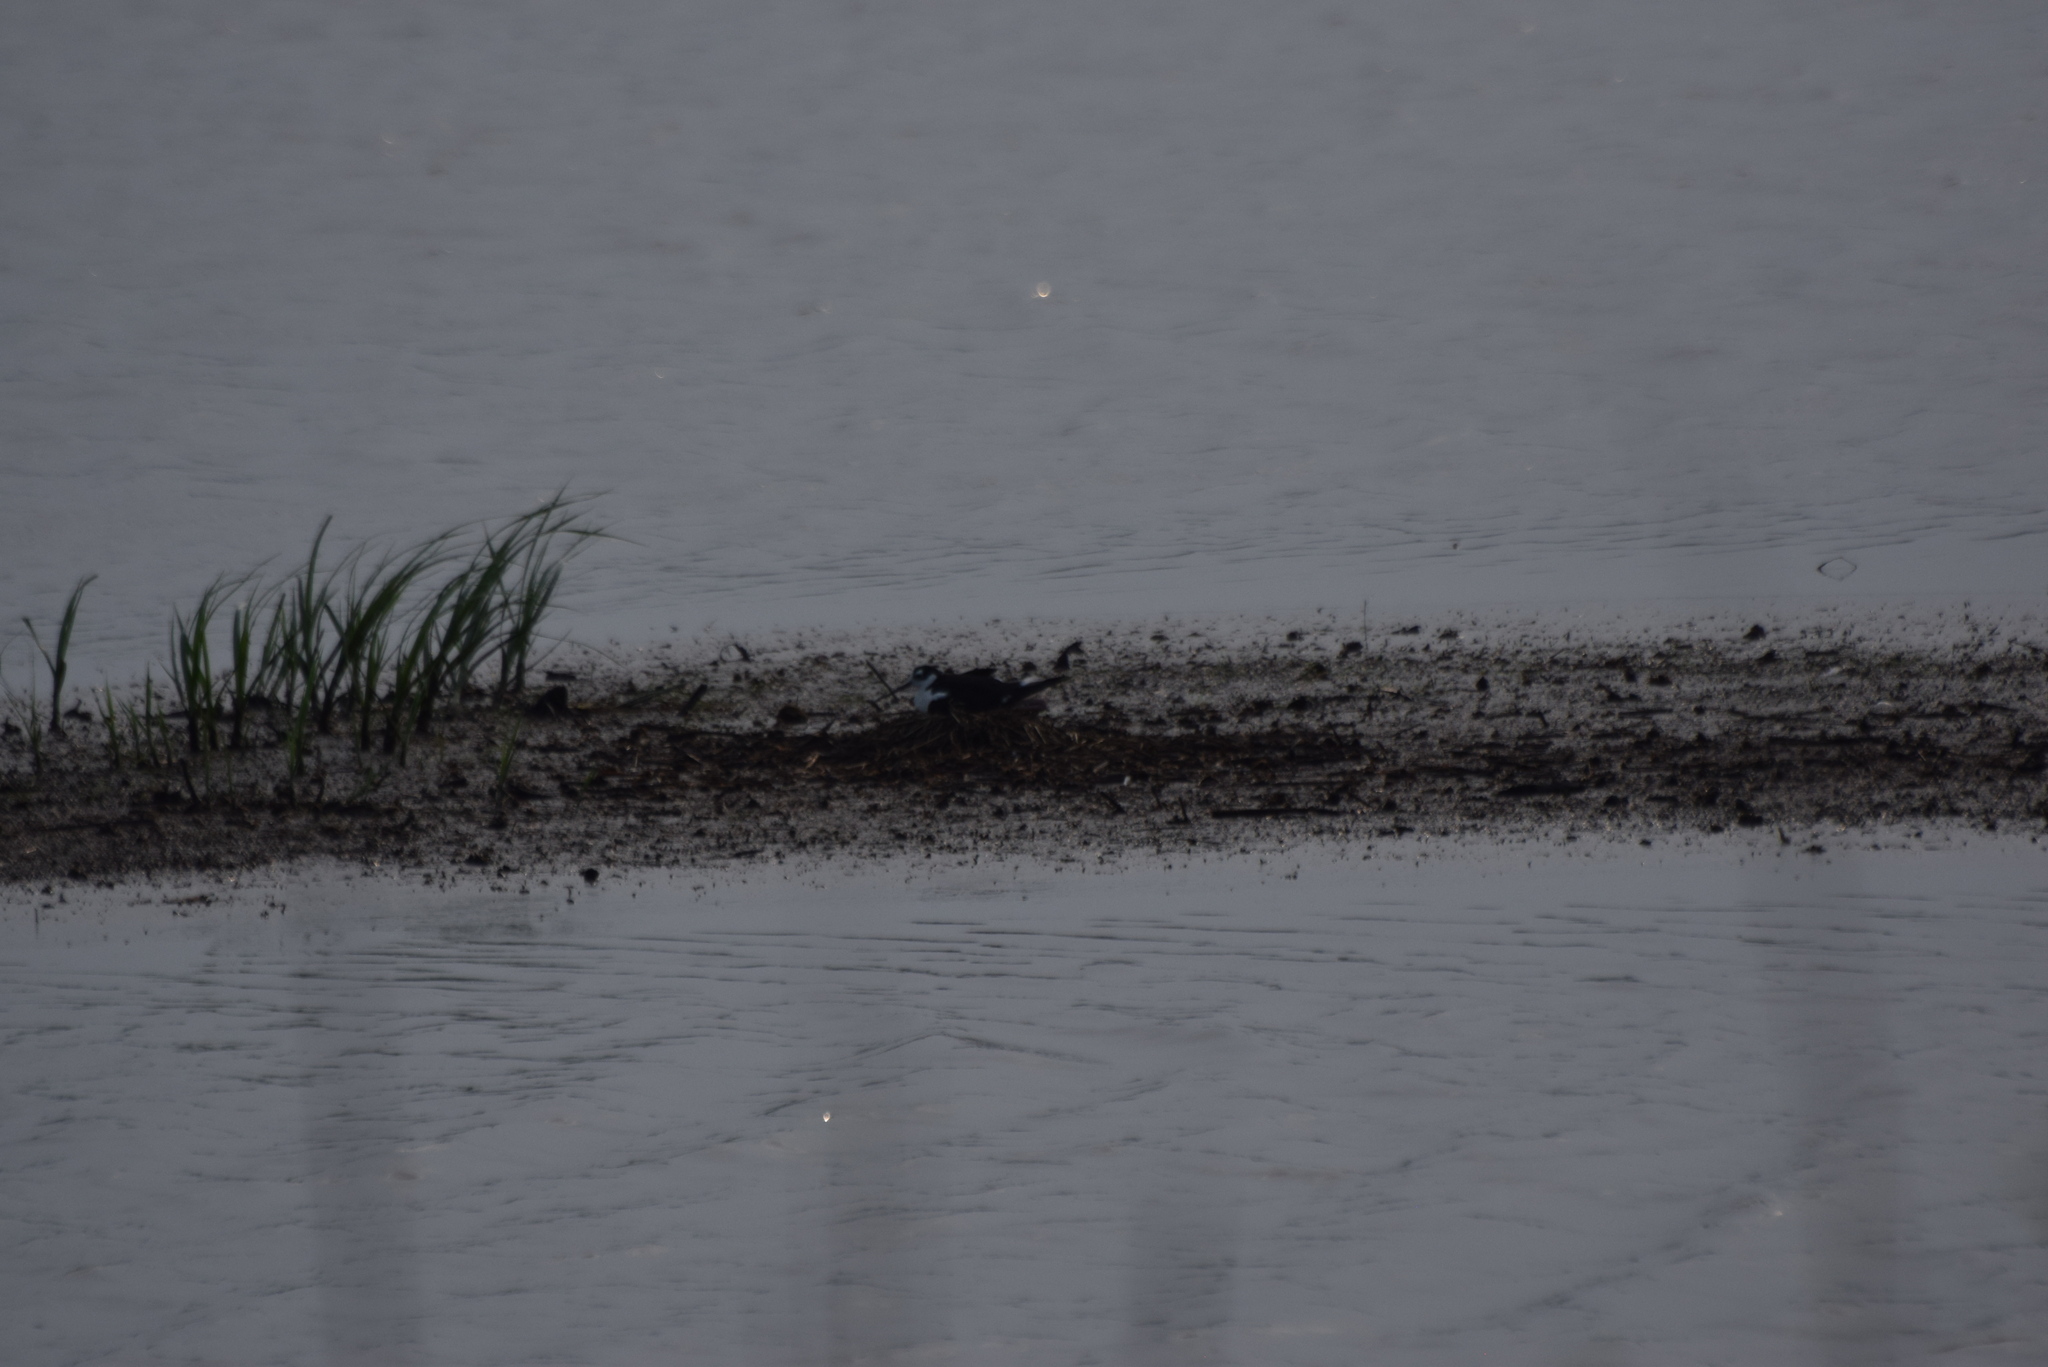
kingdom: Animalia
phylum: Chordata
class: Aves
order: Charadriiformes
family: Recurvirostridae
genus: Himantopus
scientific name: Himantopus mexicanus
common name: Black-necked stilt
